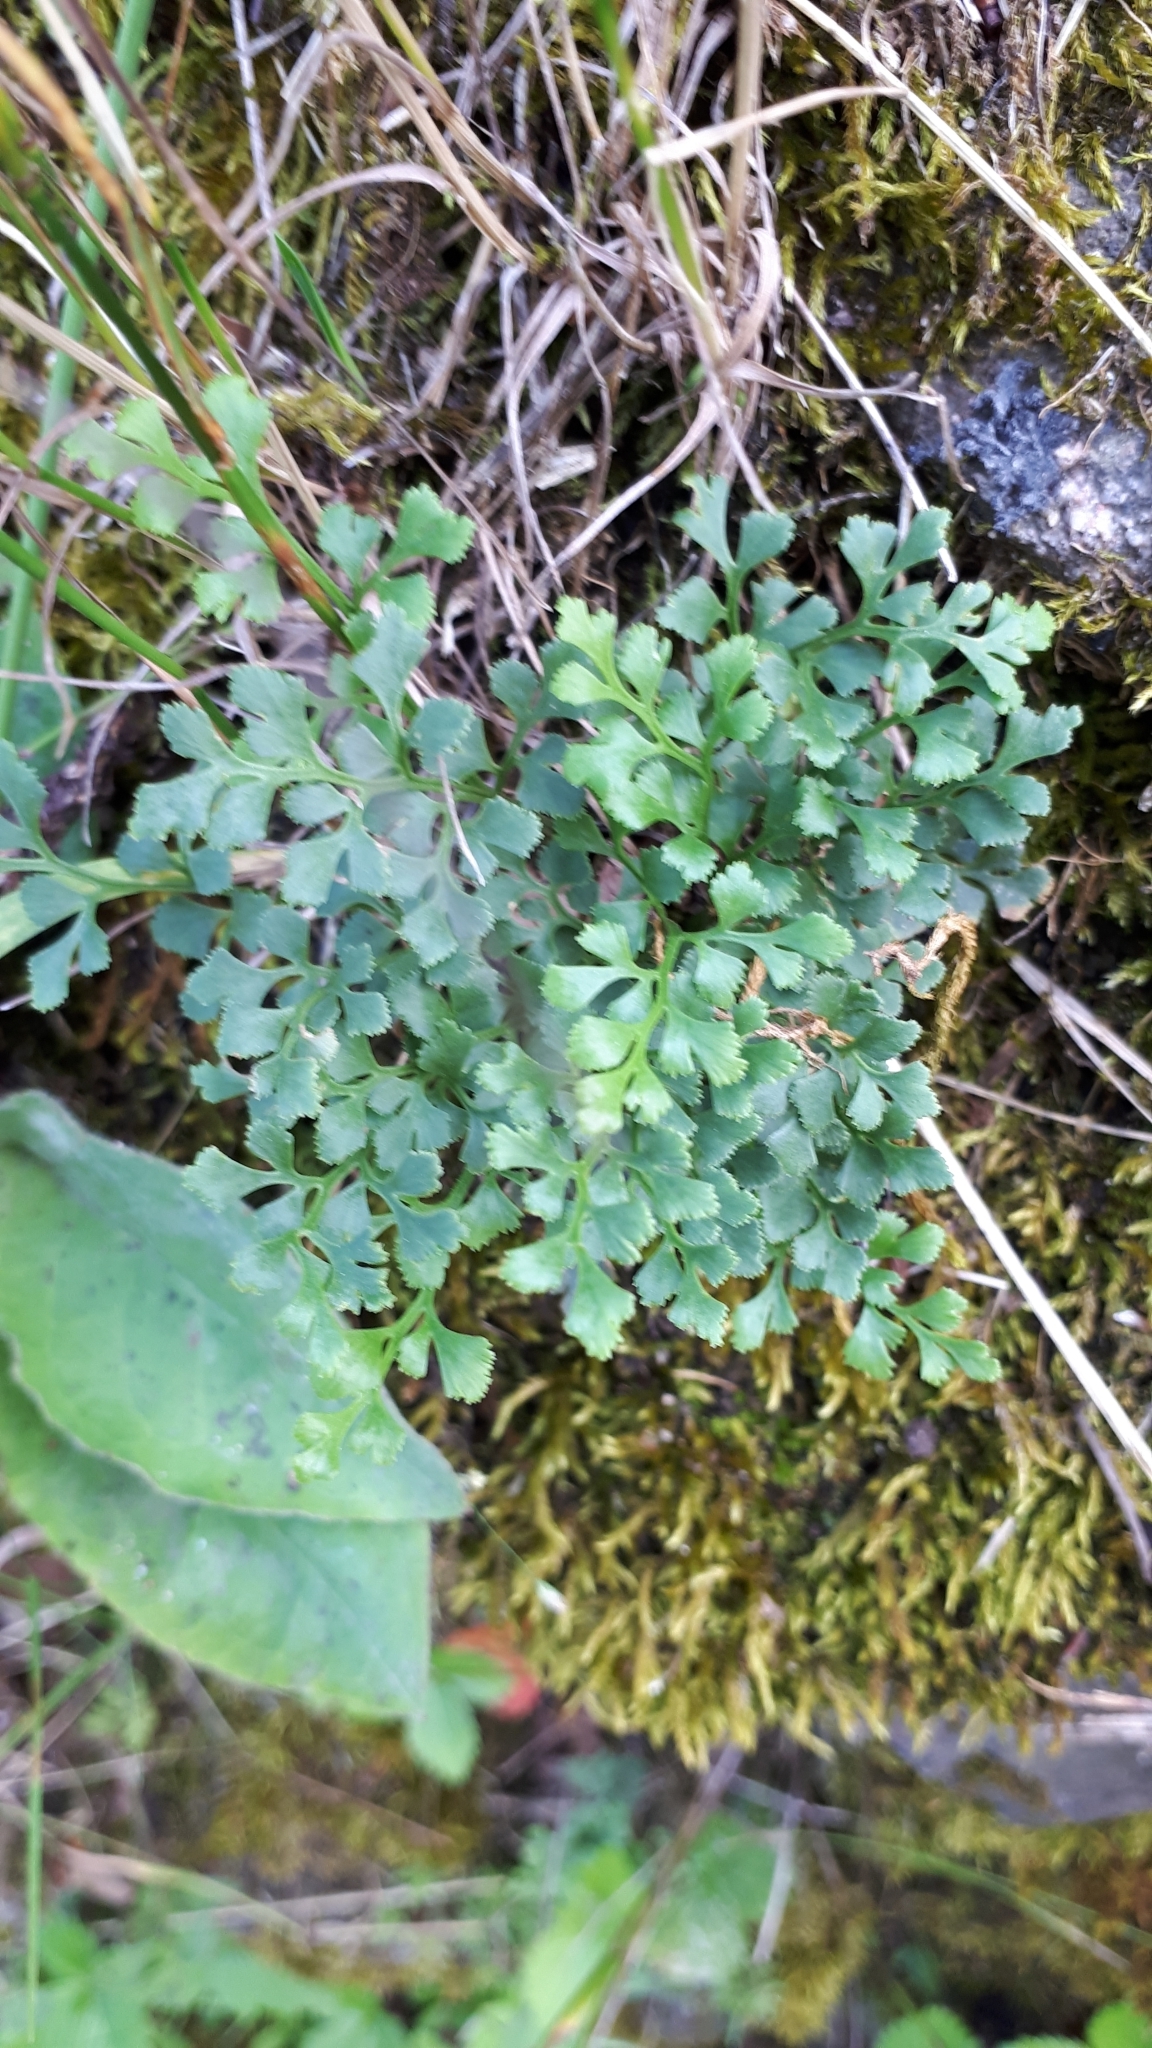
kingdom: Plantae
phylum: Tracheophyta
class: Polypodiopsida
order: Polypodiales
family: Aspleniaceae
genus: Asplenium
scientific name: Asplenium ruta-muraria
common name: Wall-rue
